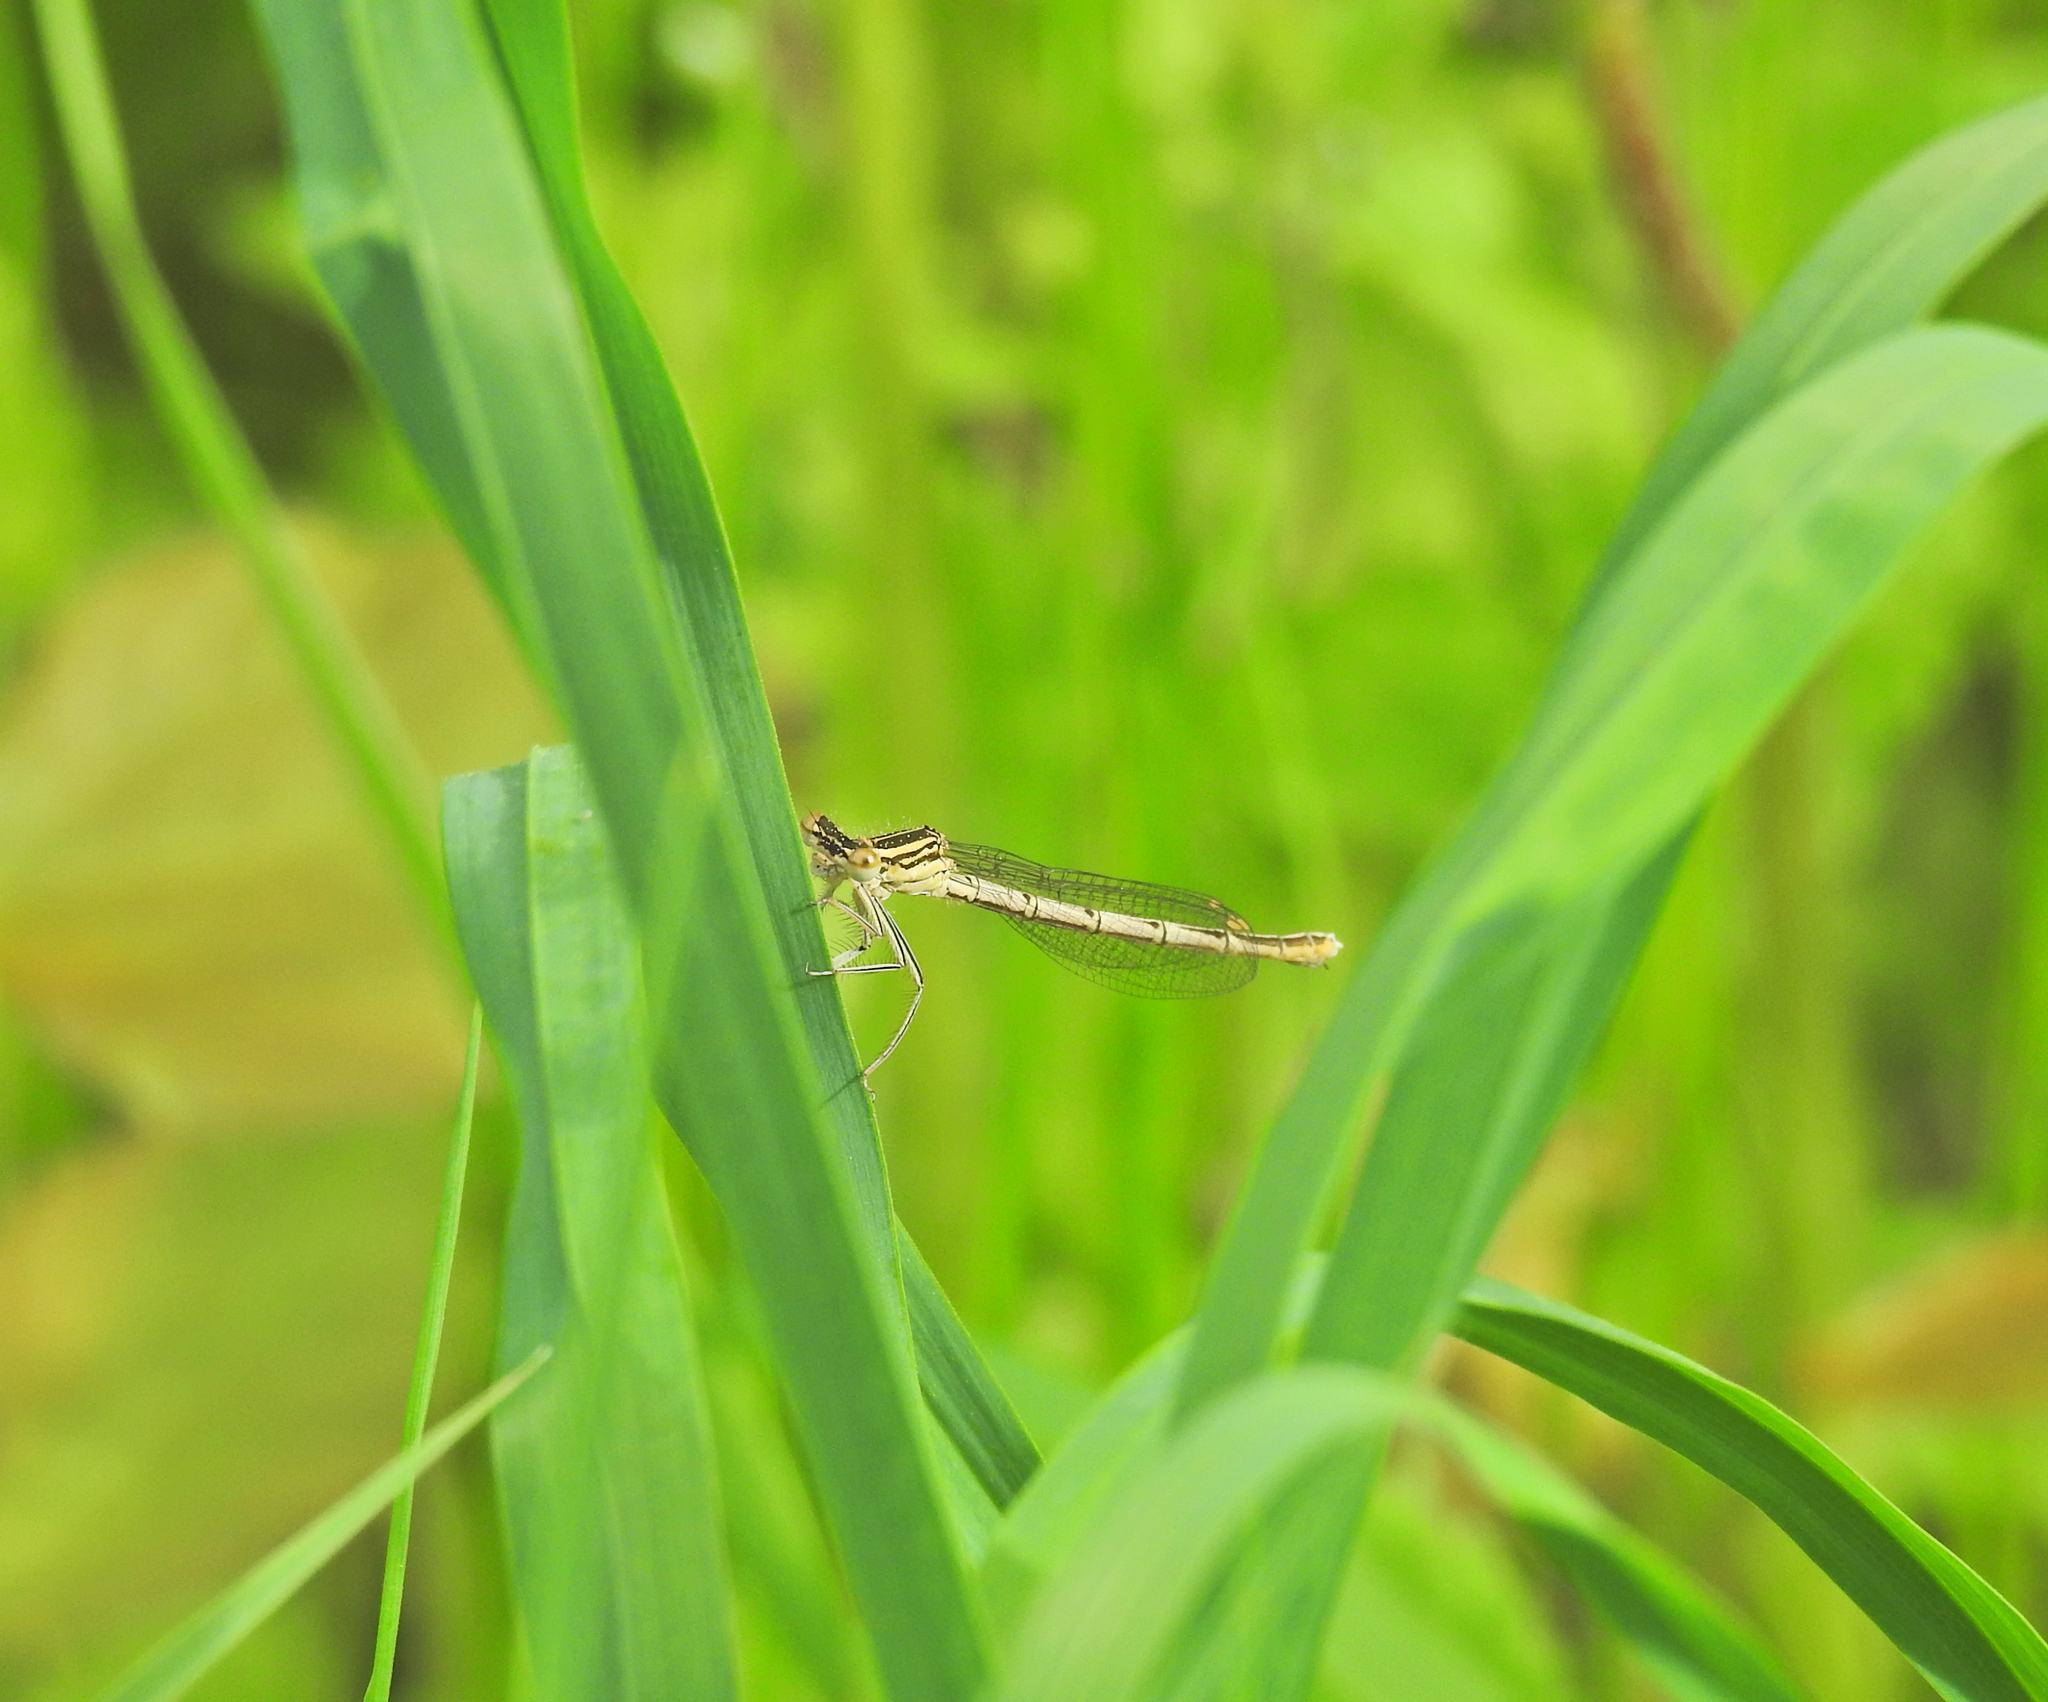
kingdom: Animalia
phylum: Arthropoda
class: Insecta
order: Odonata
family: Platycnemididae
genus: Platycnemis
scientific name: Platycnemis pennipes
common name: White-legged damselfly
